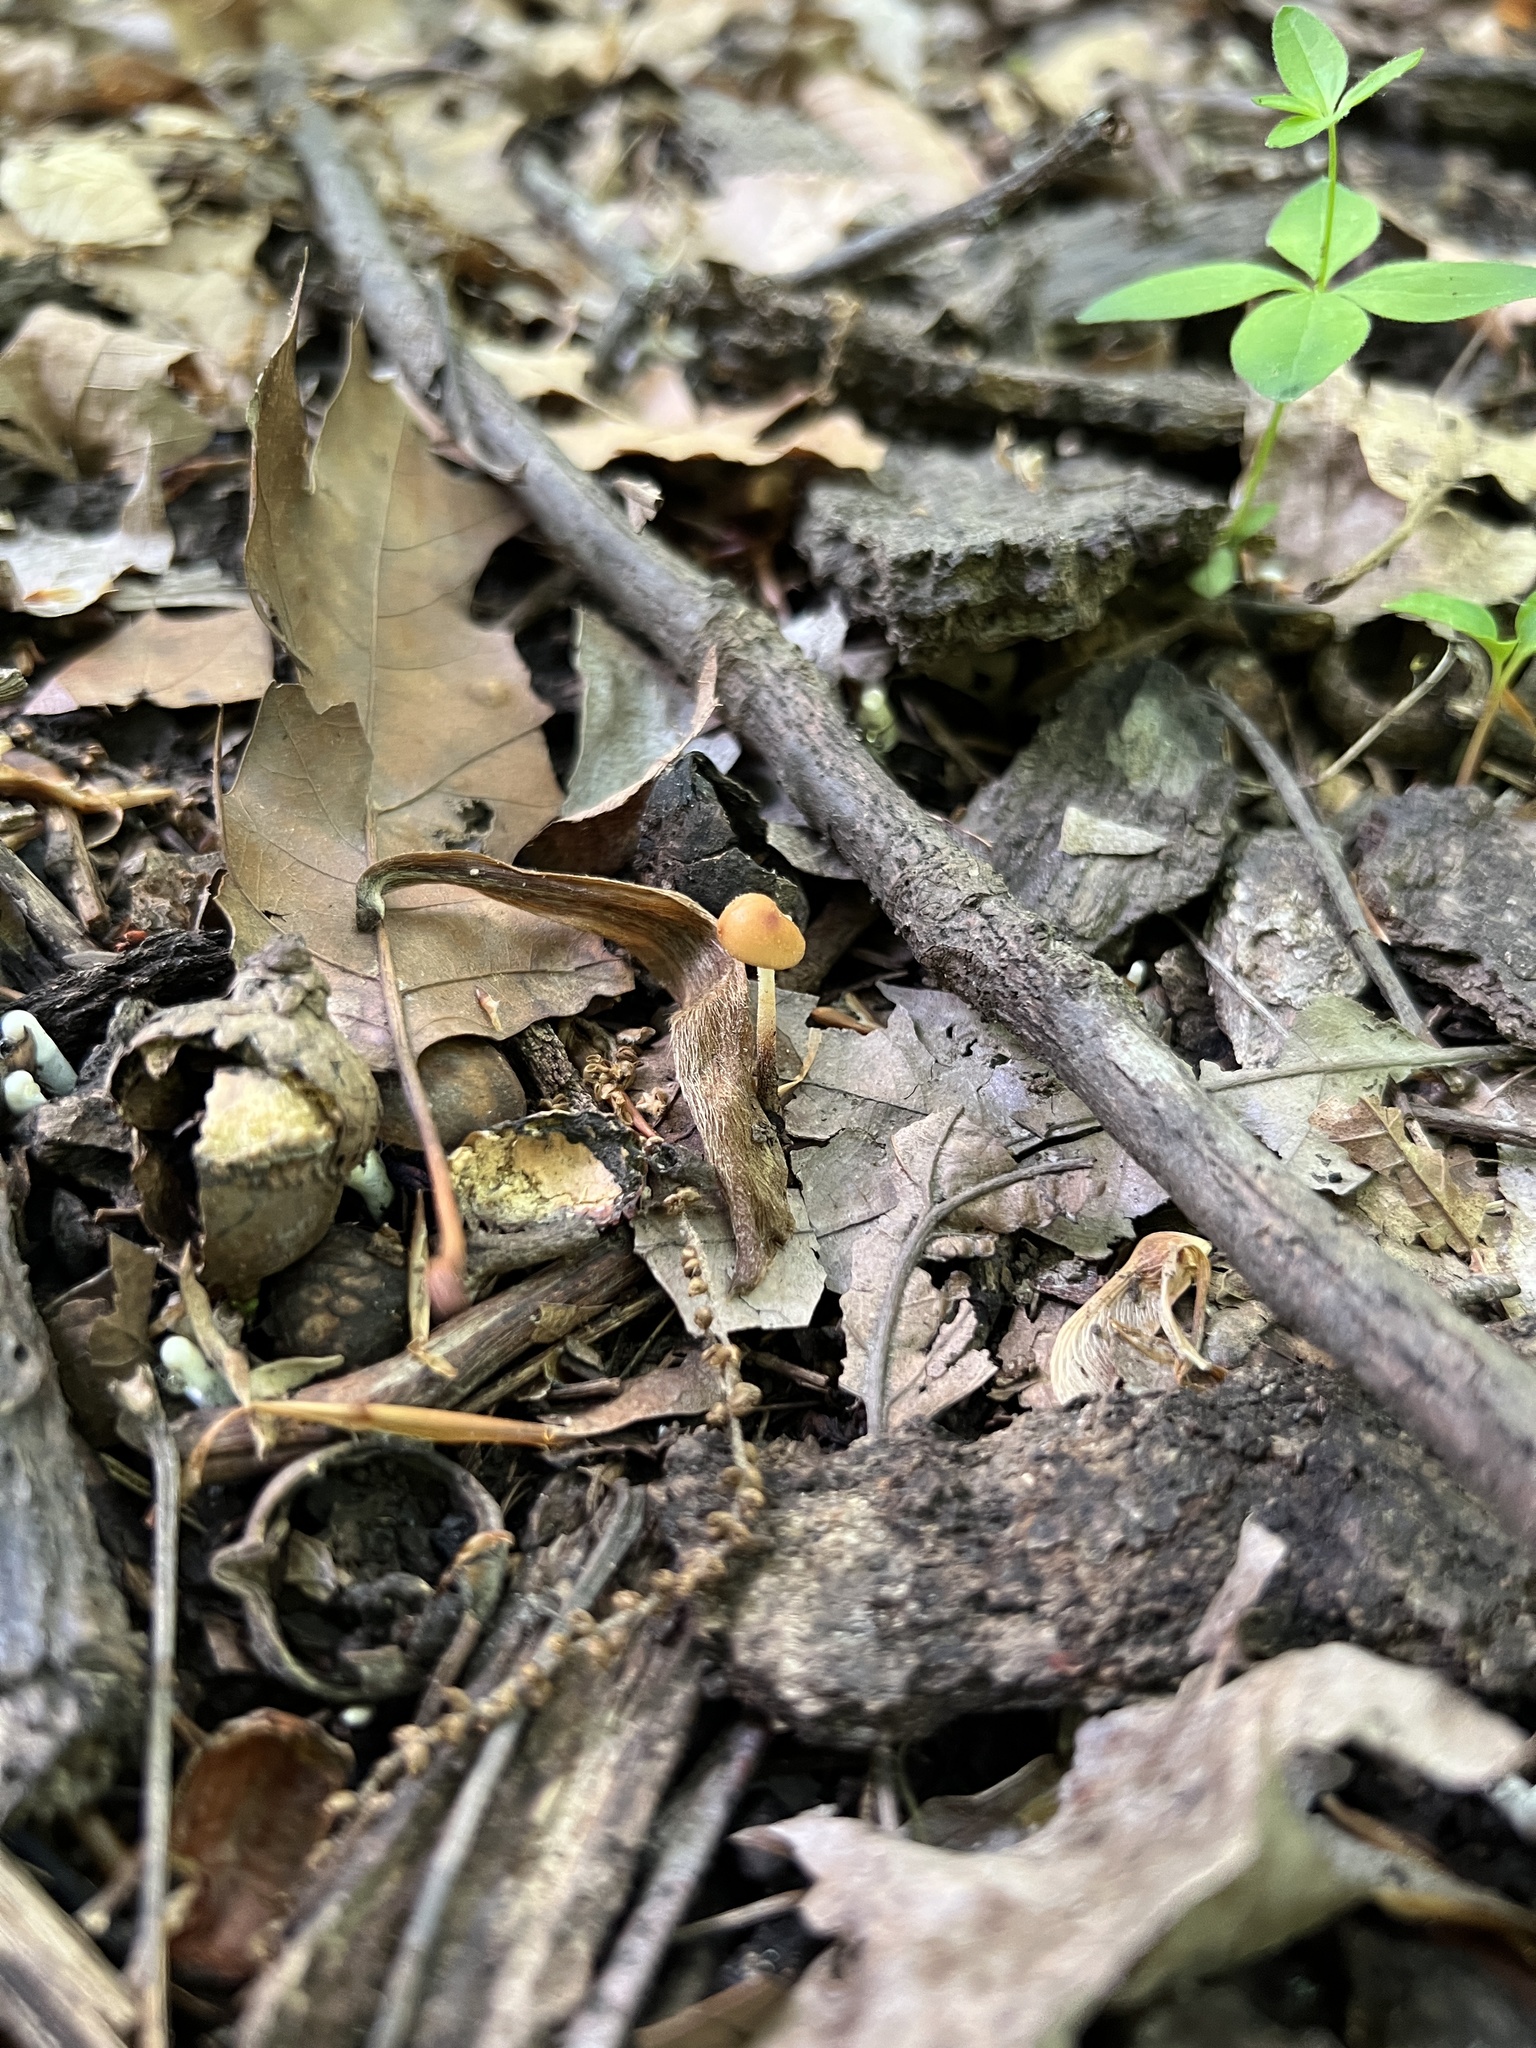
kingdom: Fungi
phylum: Basidiomycota
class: Agaricomycetes
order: Agaricales
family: Physalacriaceae
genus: Rhizomarasmius
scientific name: Rhizomarasmius pyrrhocephalus
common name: Hairy long stem marasmius
